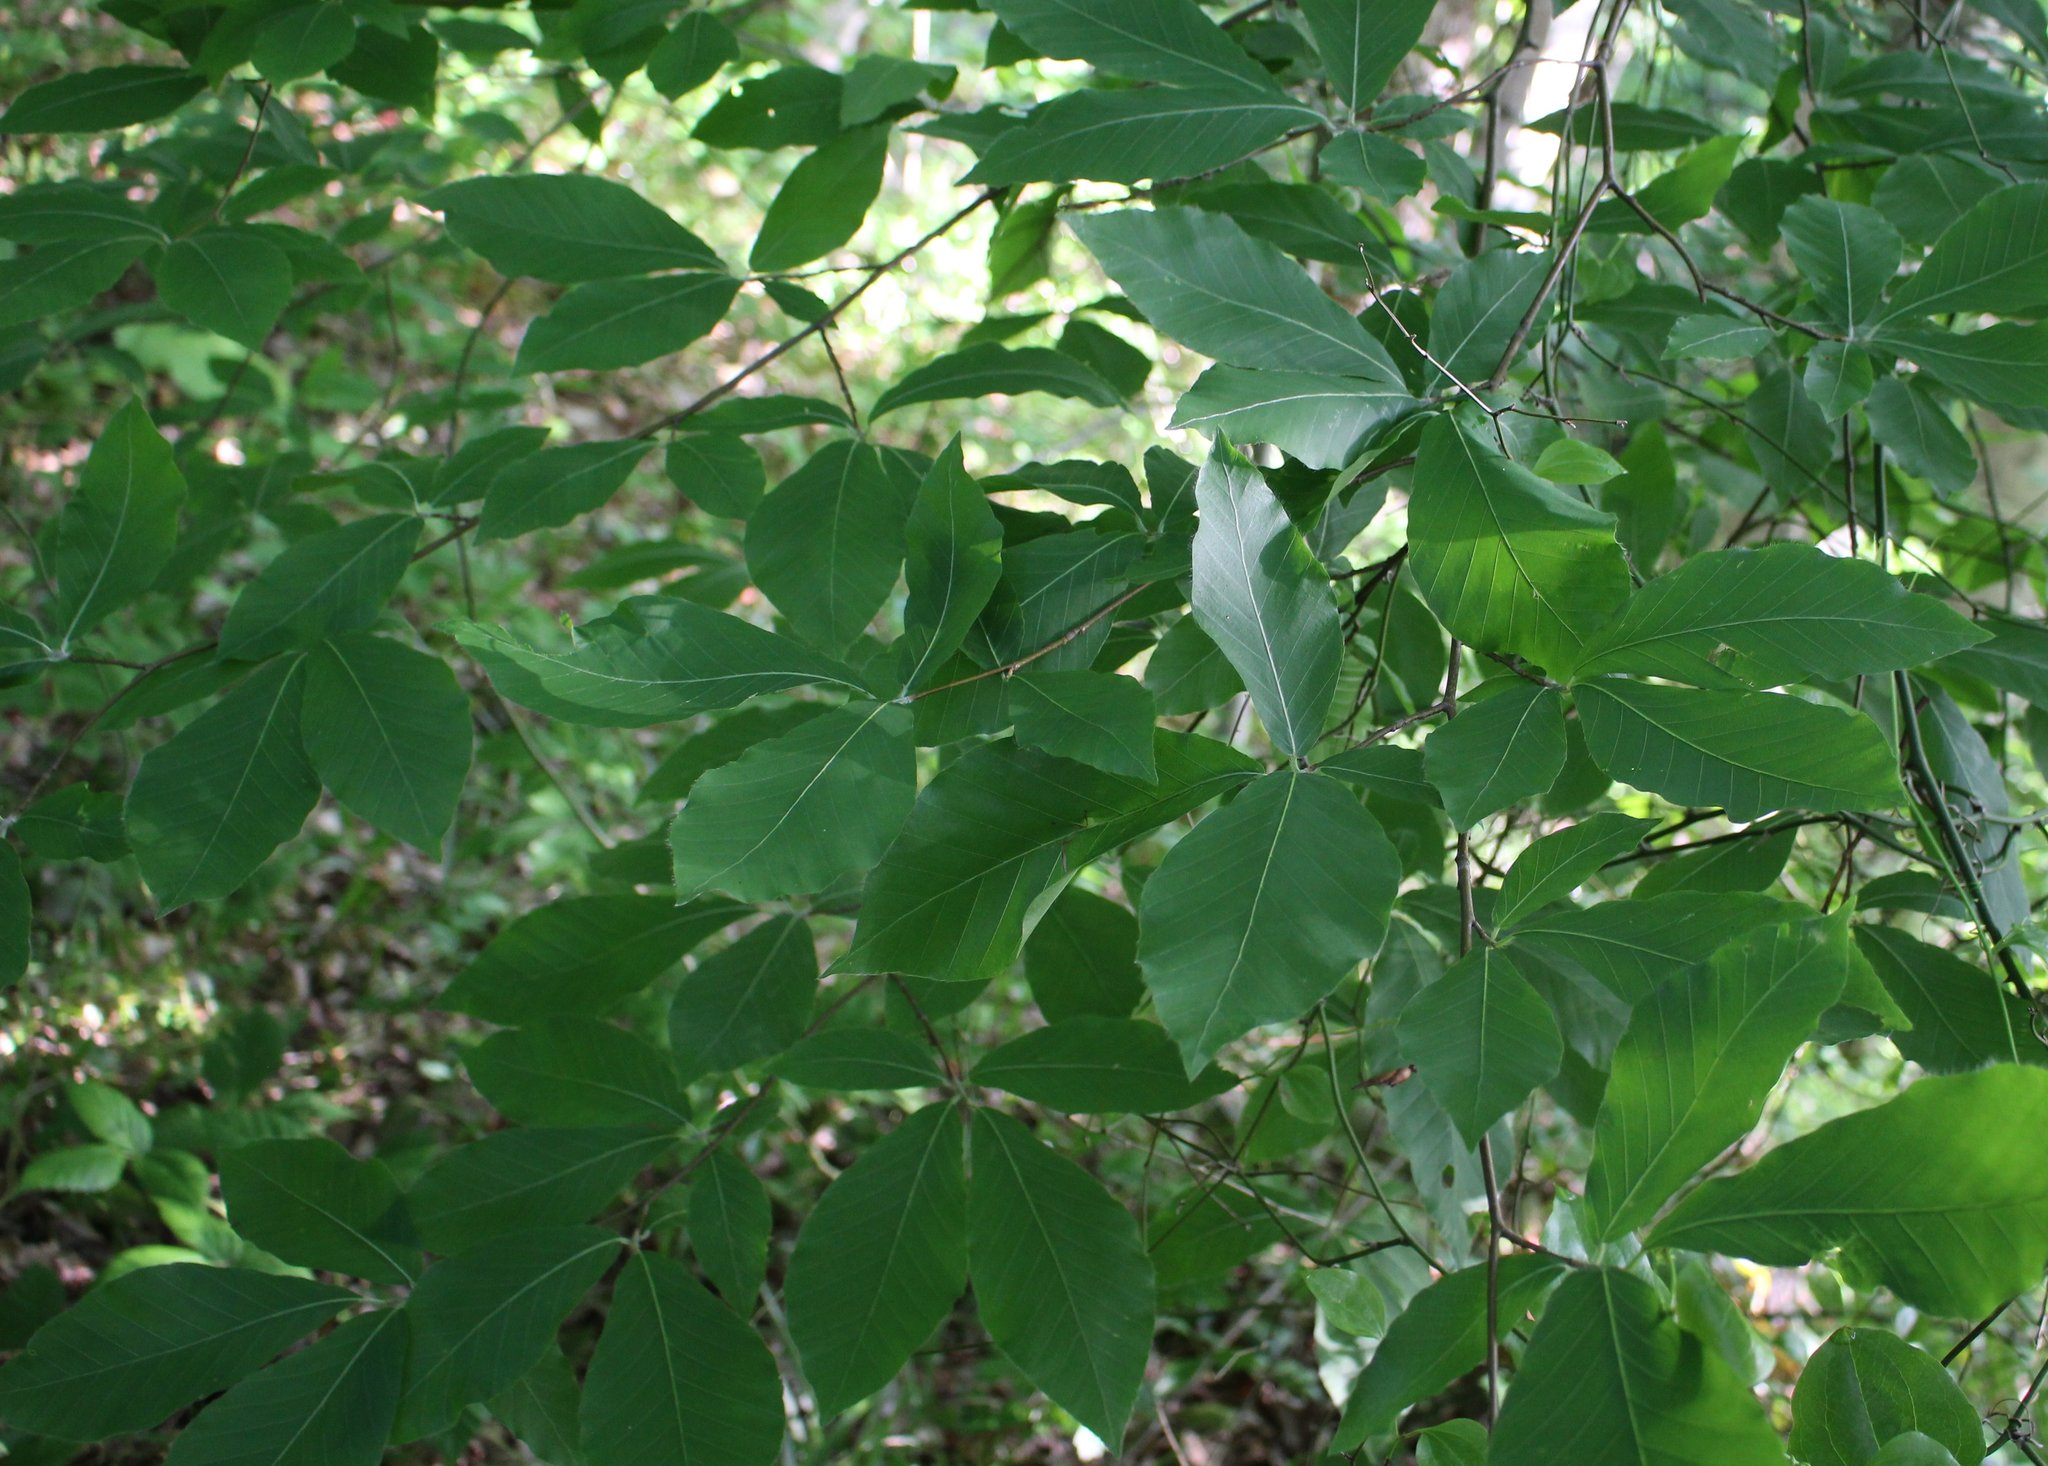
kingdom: Plantae
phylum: Tracheophyta
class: Magnoliopsida
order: Fagales
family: Fagaceae
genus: Fagus
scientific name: Fagus orientalis
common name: Oriental beech
